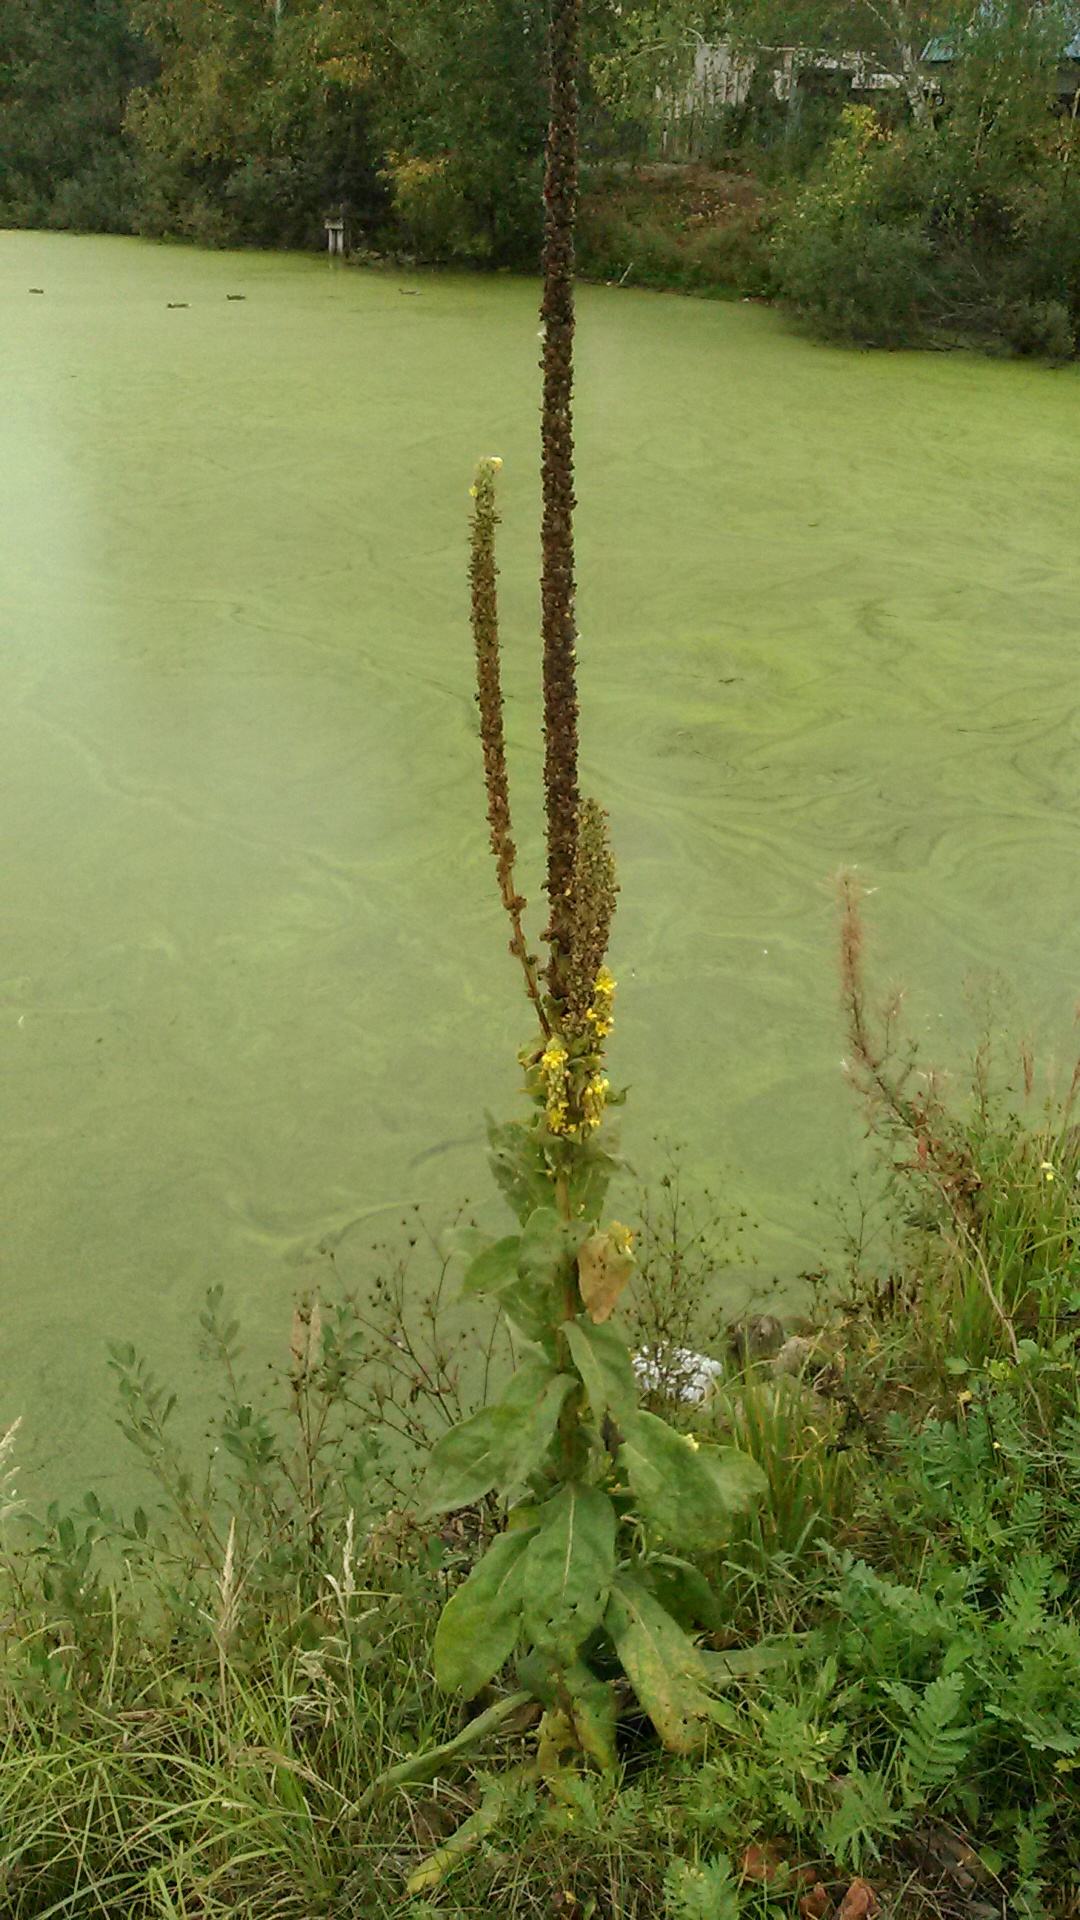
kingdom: Plantae
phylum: Tracheophyta
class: Magnoliopsida
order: Lamiales
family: Scrophulariaceae
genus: Verbascum
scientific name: Verbascum thapsus
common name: Common mullein
